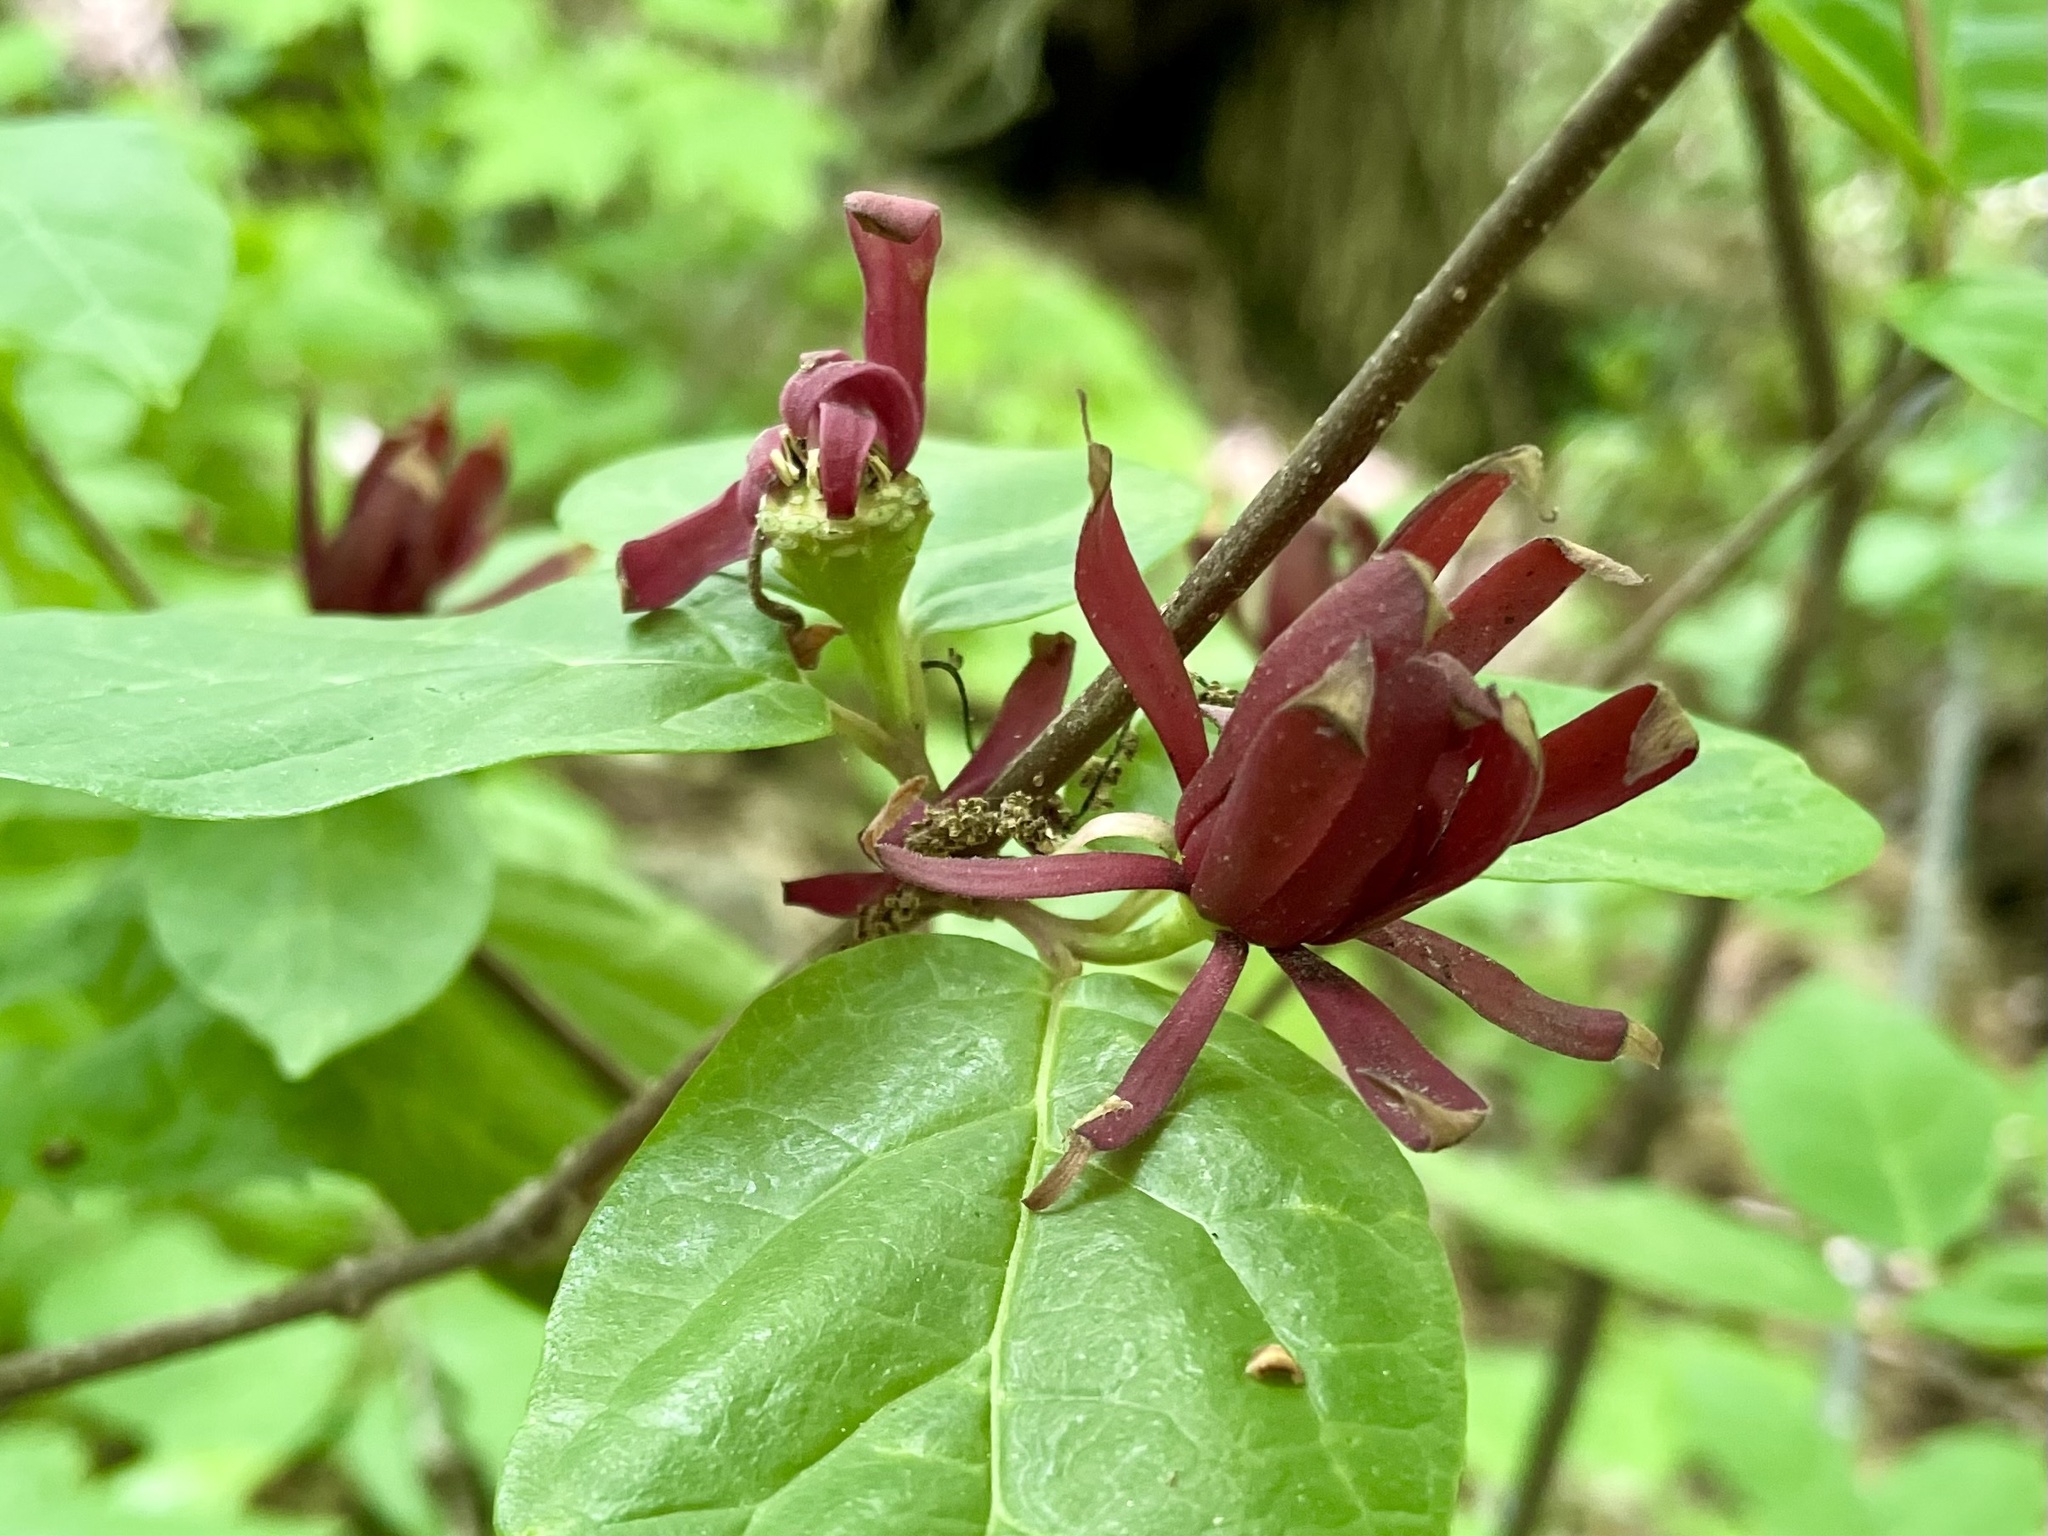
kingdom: Plantae
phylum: Tracheophyta
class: Magnoliopsida
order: Laurales
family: Calycanthaceae
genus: Calycanthus
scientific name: Calycanthus floridus
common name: Carolina-allspice
